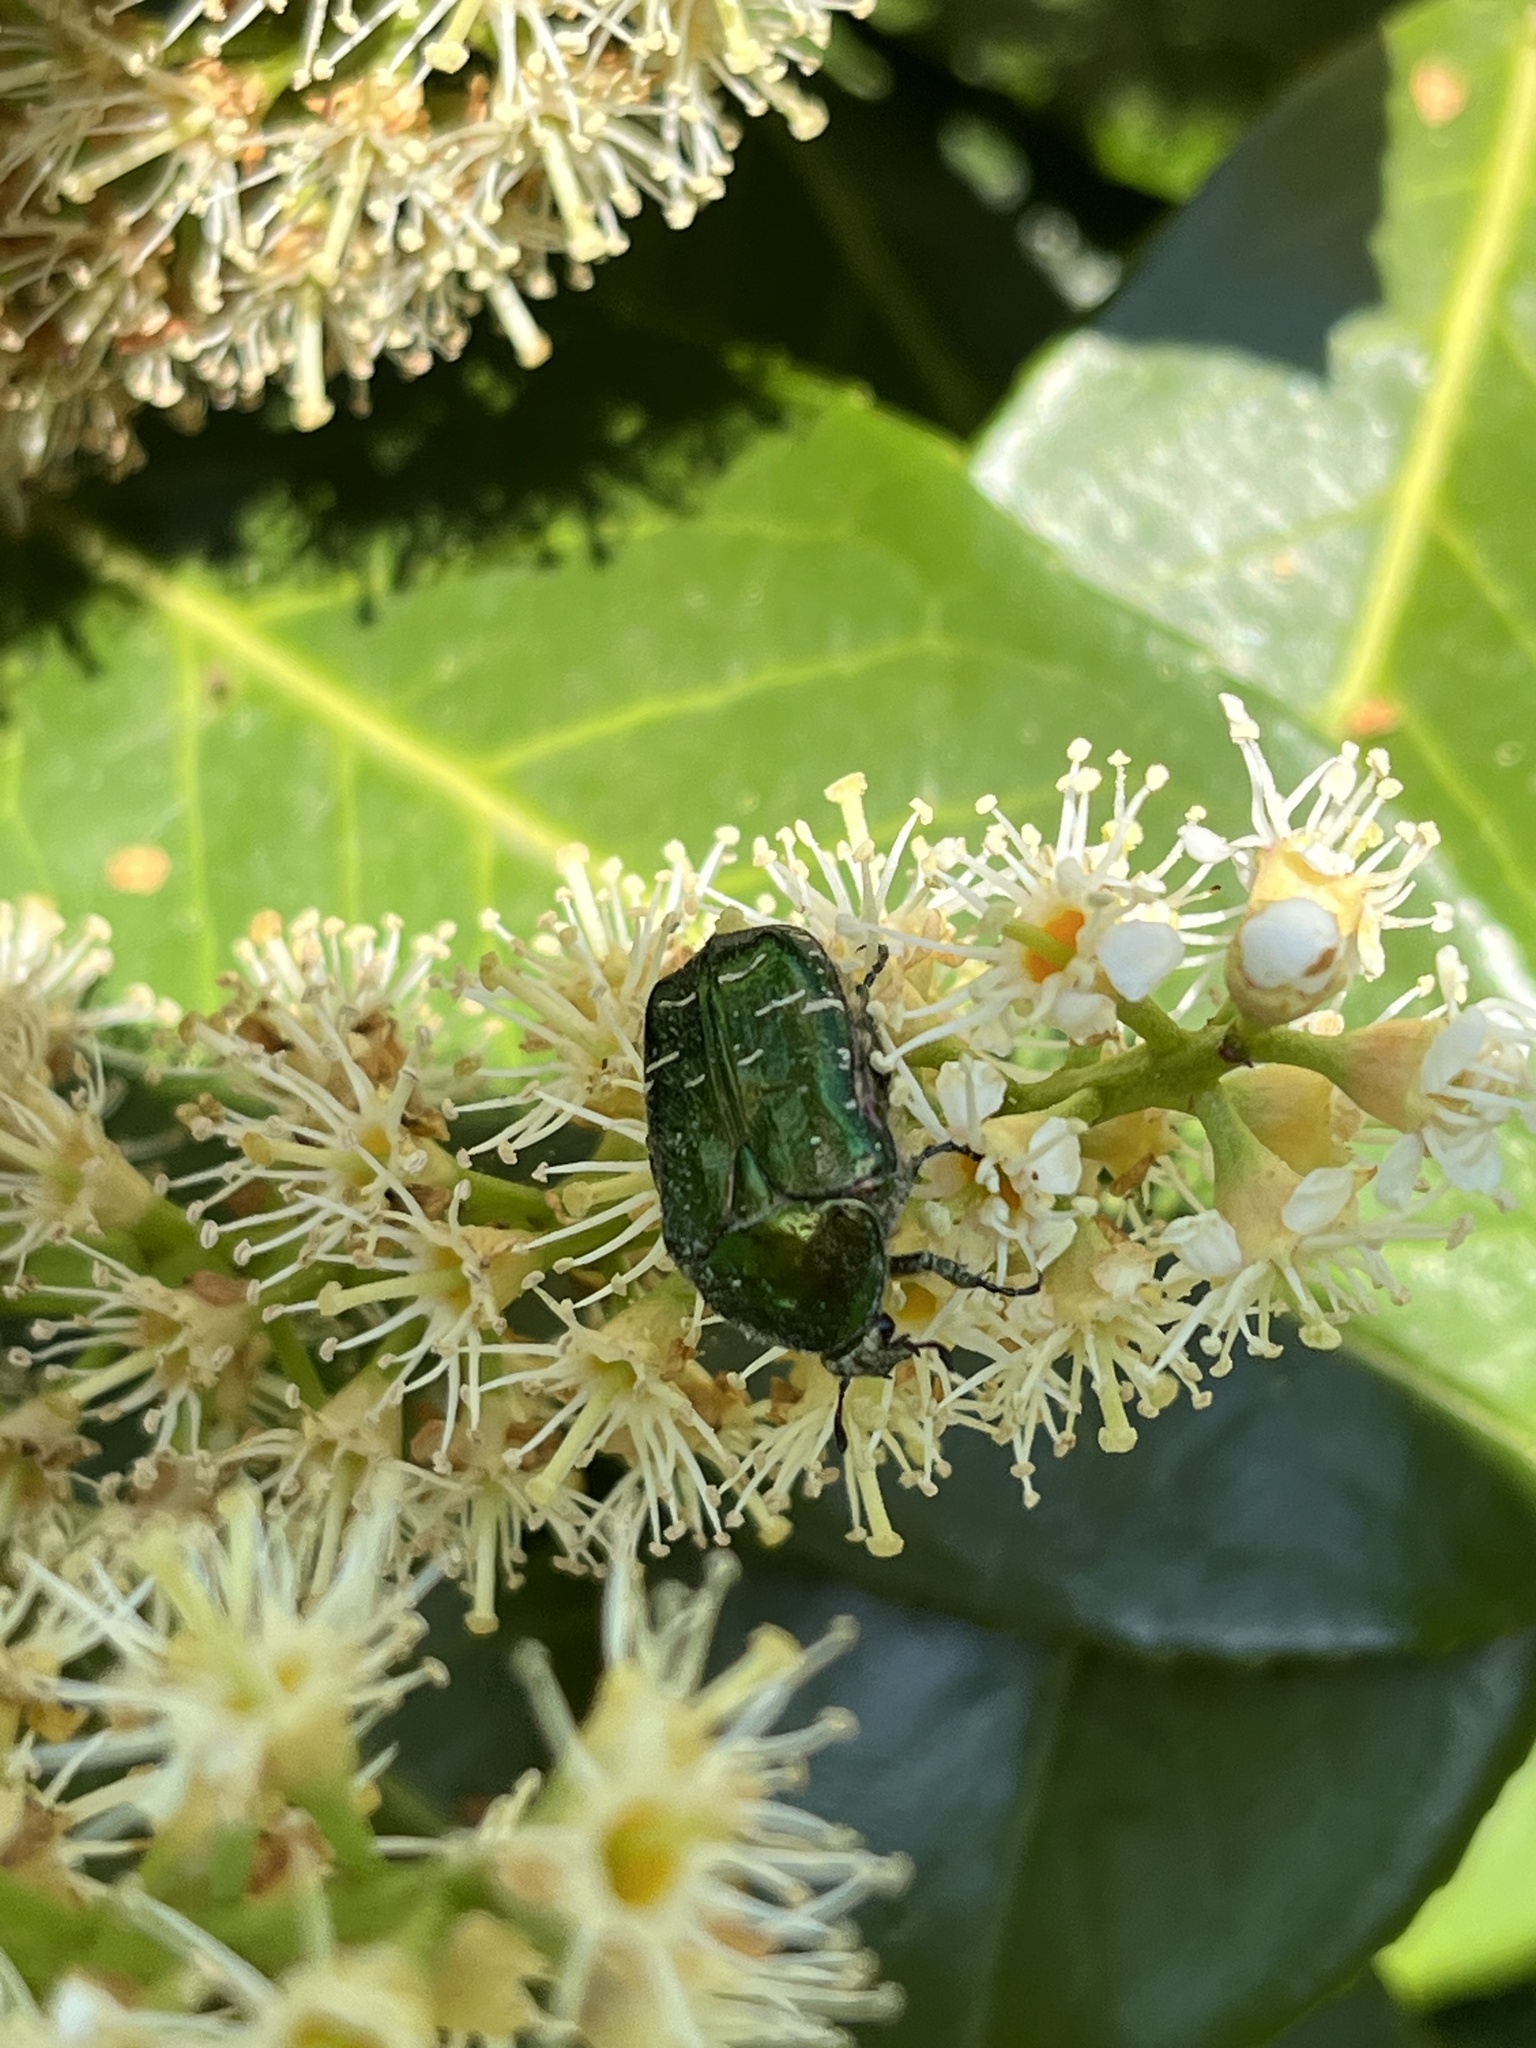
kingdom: Animalia
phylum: Arthropoda
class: Insecta
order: Coleoptera
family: Scarabaeidae
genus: Cetonia
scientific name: Cetonia aurata
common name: Rose chafer
